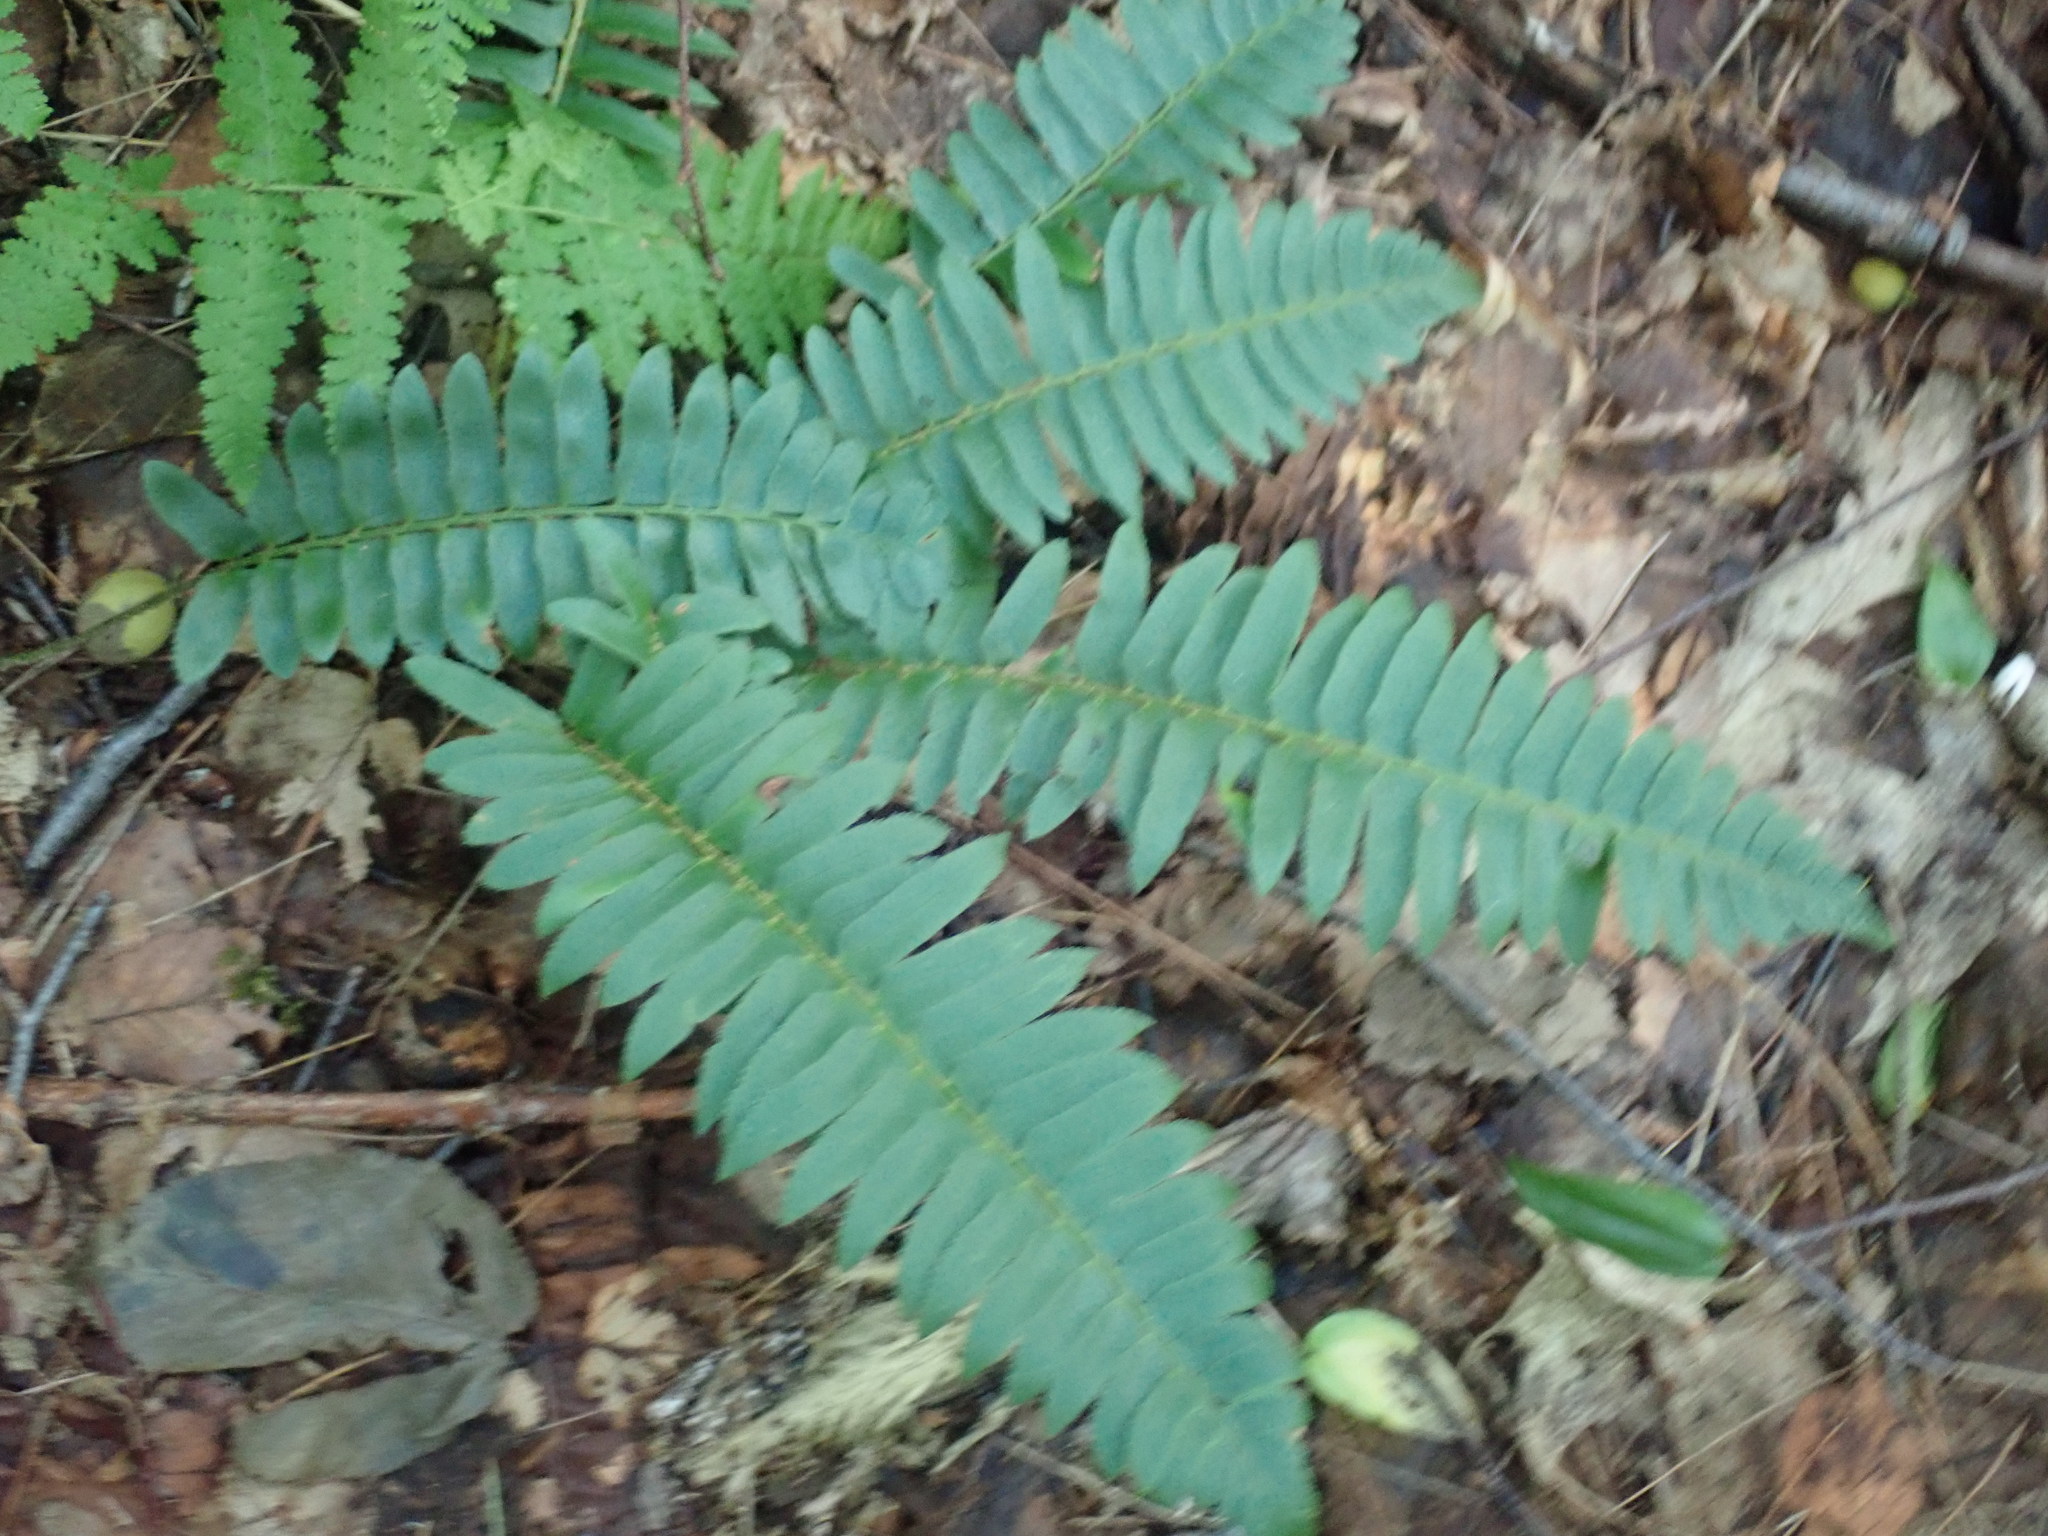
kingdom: Plantae
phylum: Tracheophyta
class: Polypodiopsida
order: Polypodiales
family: Dryopteridaceae
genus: Polystichum
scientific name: Polystichum acrostichoides
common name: Christmas fern
